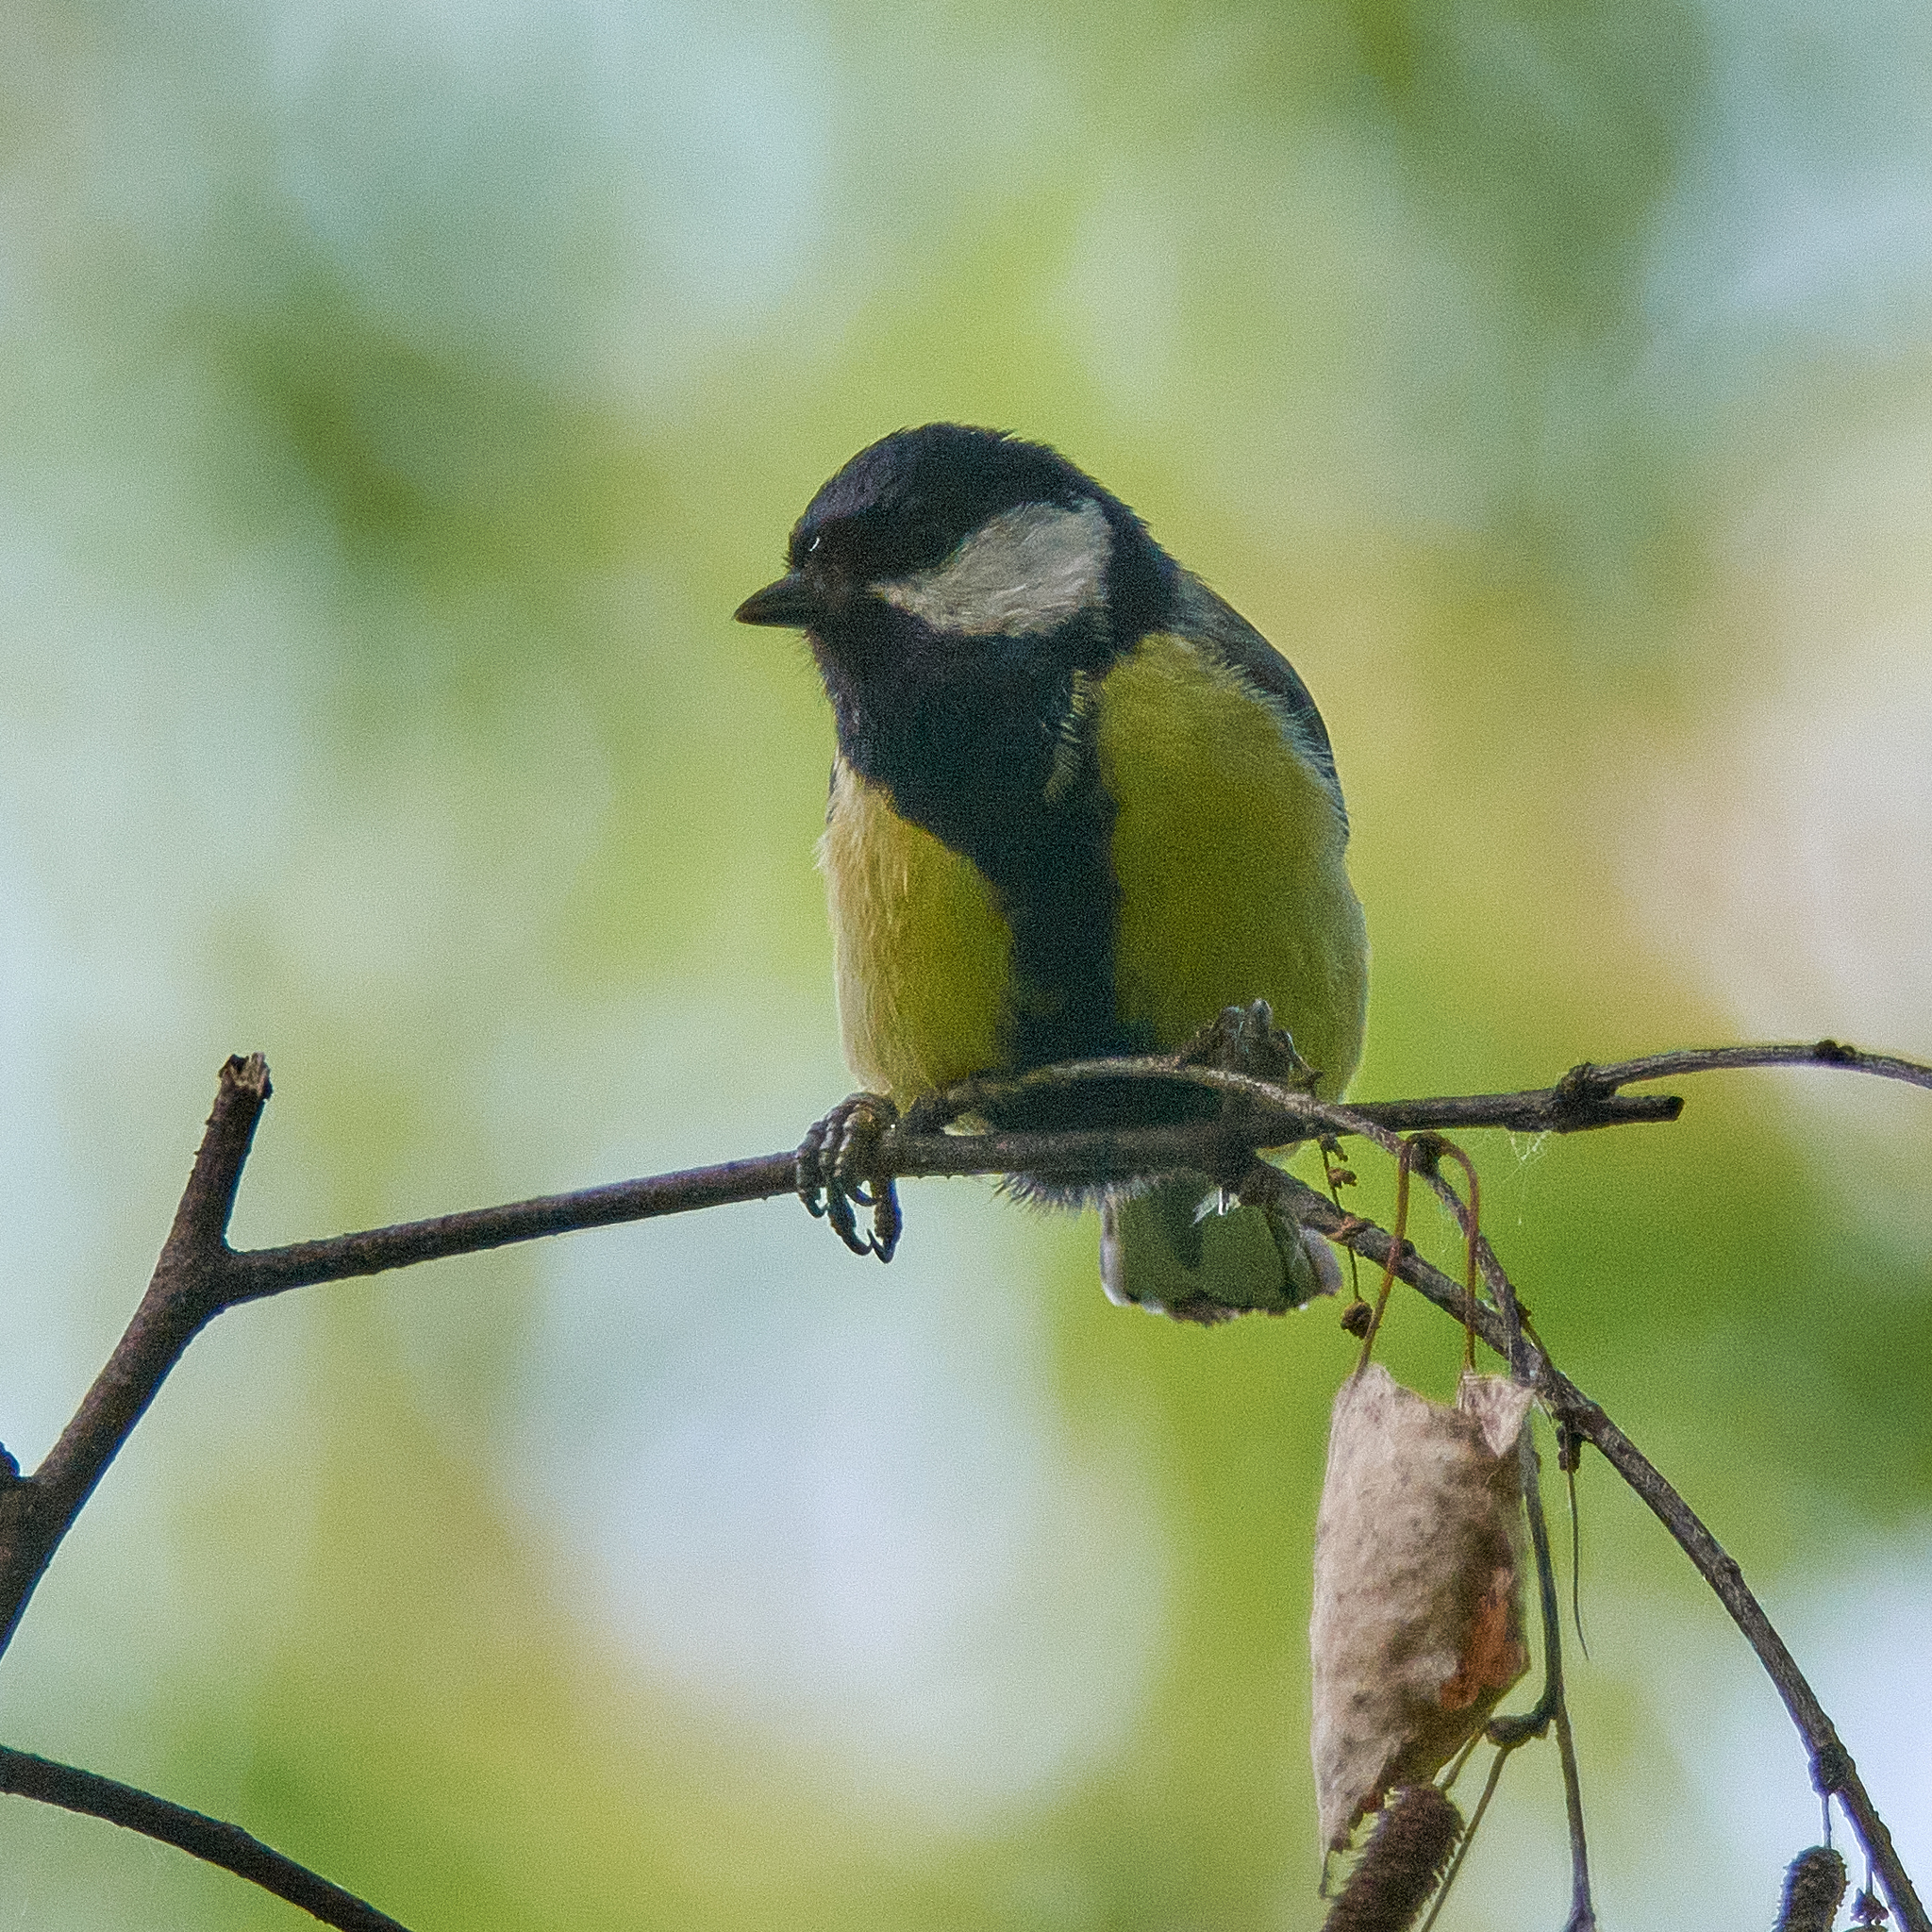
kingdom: Animalia
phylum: Chordata
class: Aves
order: Passeriformes
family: Paridae
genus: Parus
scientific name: Parus major
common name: Great tit
